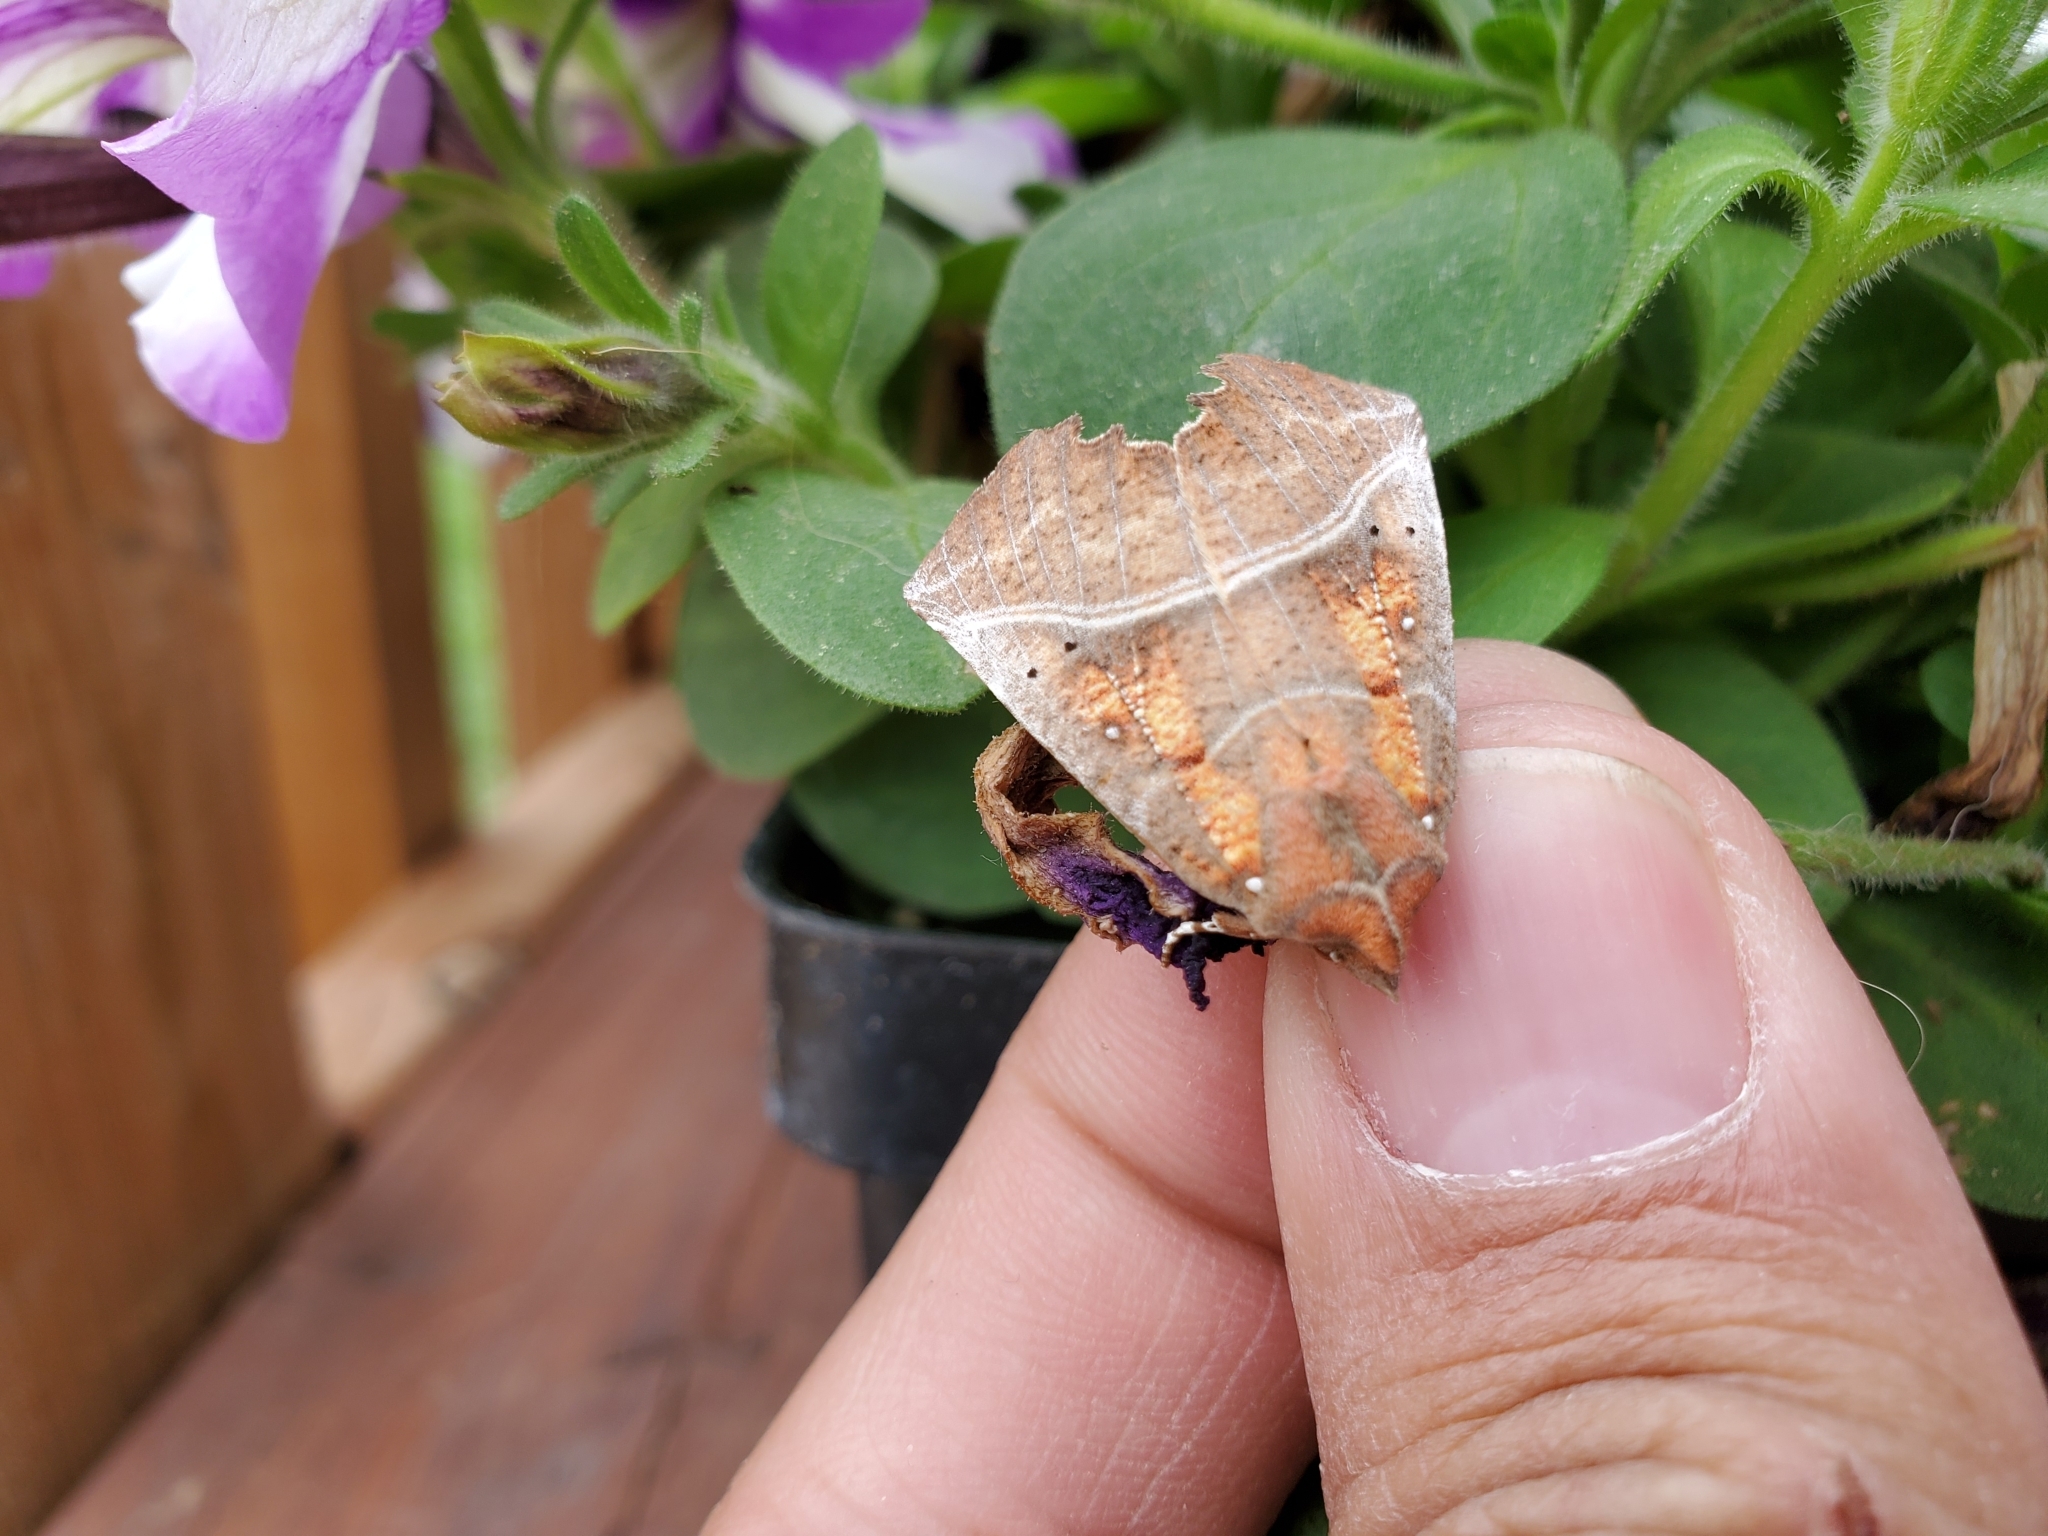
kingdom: Animalia
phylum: Arthropoda
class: Insecta
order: Lepidoptera
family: Erebidae
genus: Scoliopteryx
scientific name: Scoliopteryx libatrix
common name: Herald
